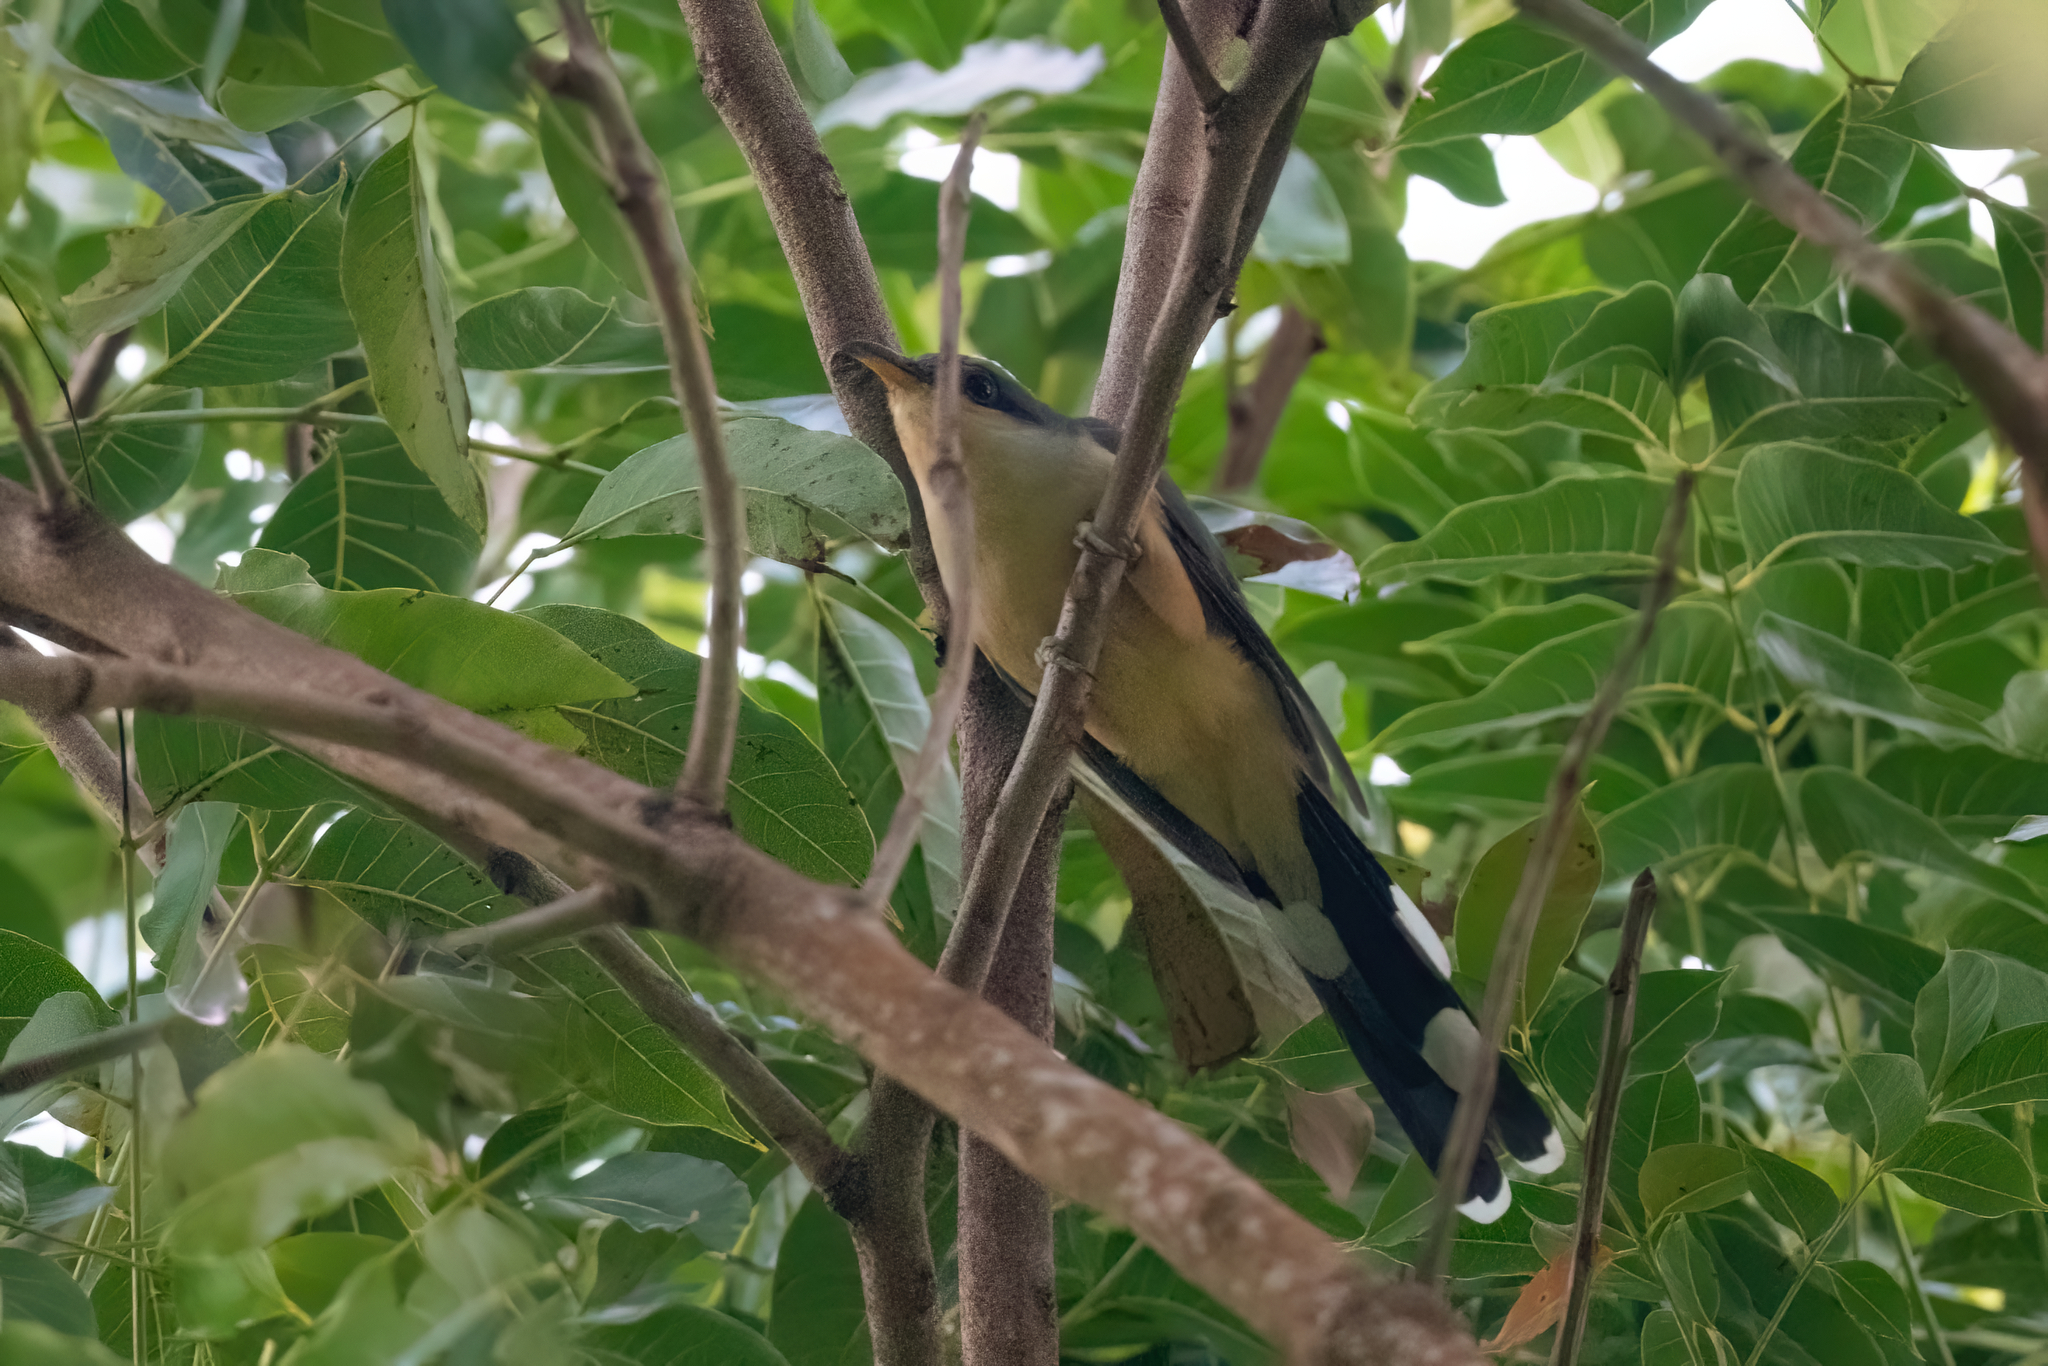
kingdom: Animalia
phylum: Chordata
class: Aves
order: Cuculiformes
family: Cuculidae
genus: Coccyzus
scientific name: Coccyzus minor
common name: Mangrove cuckoo
